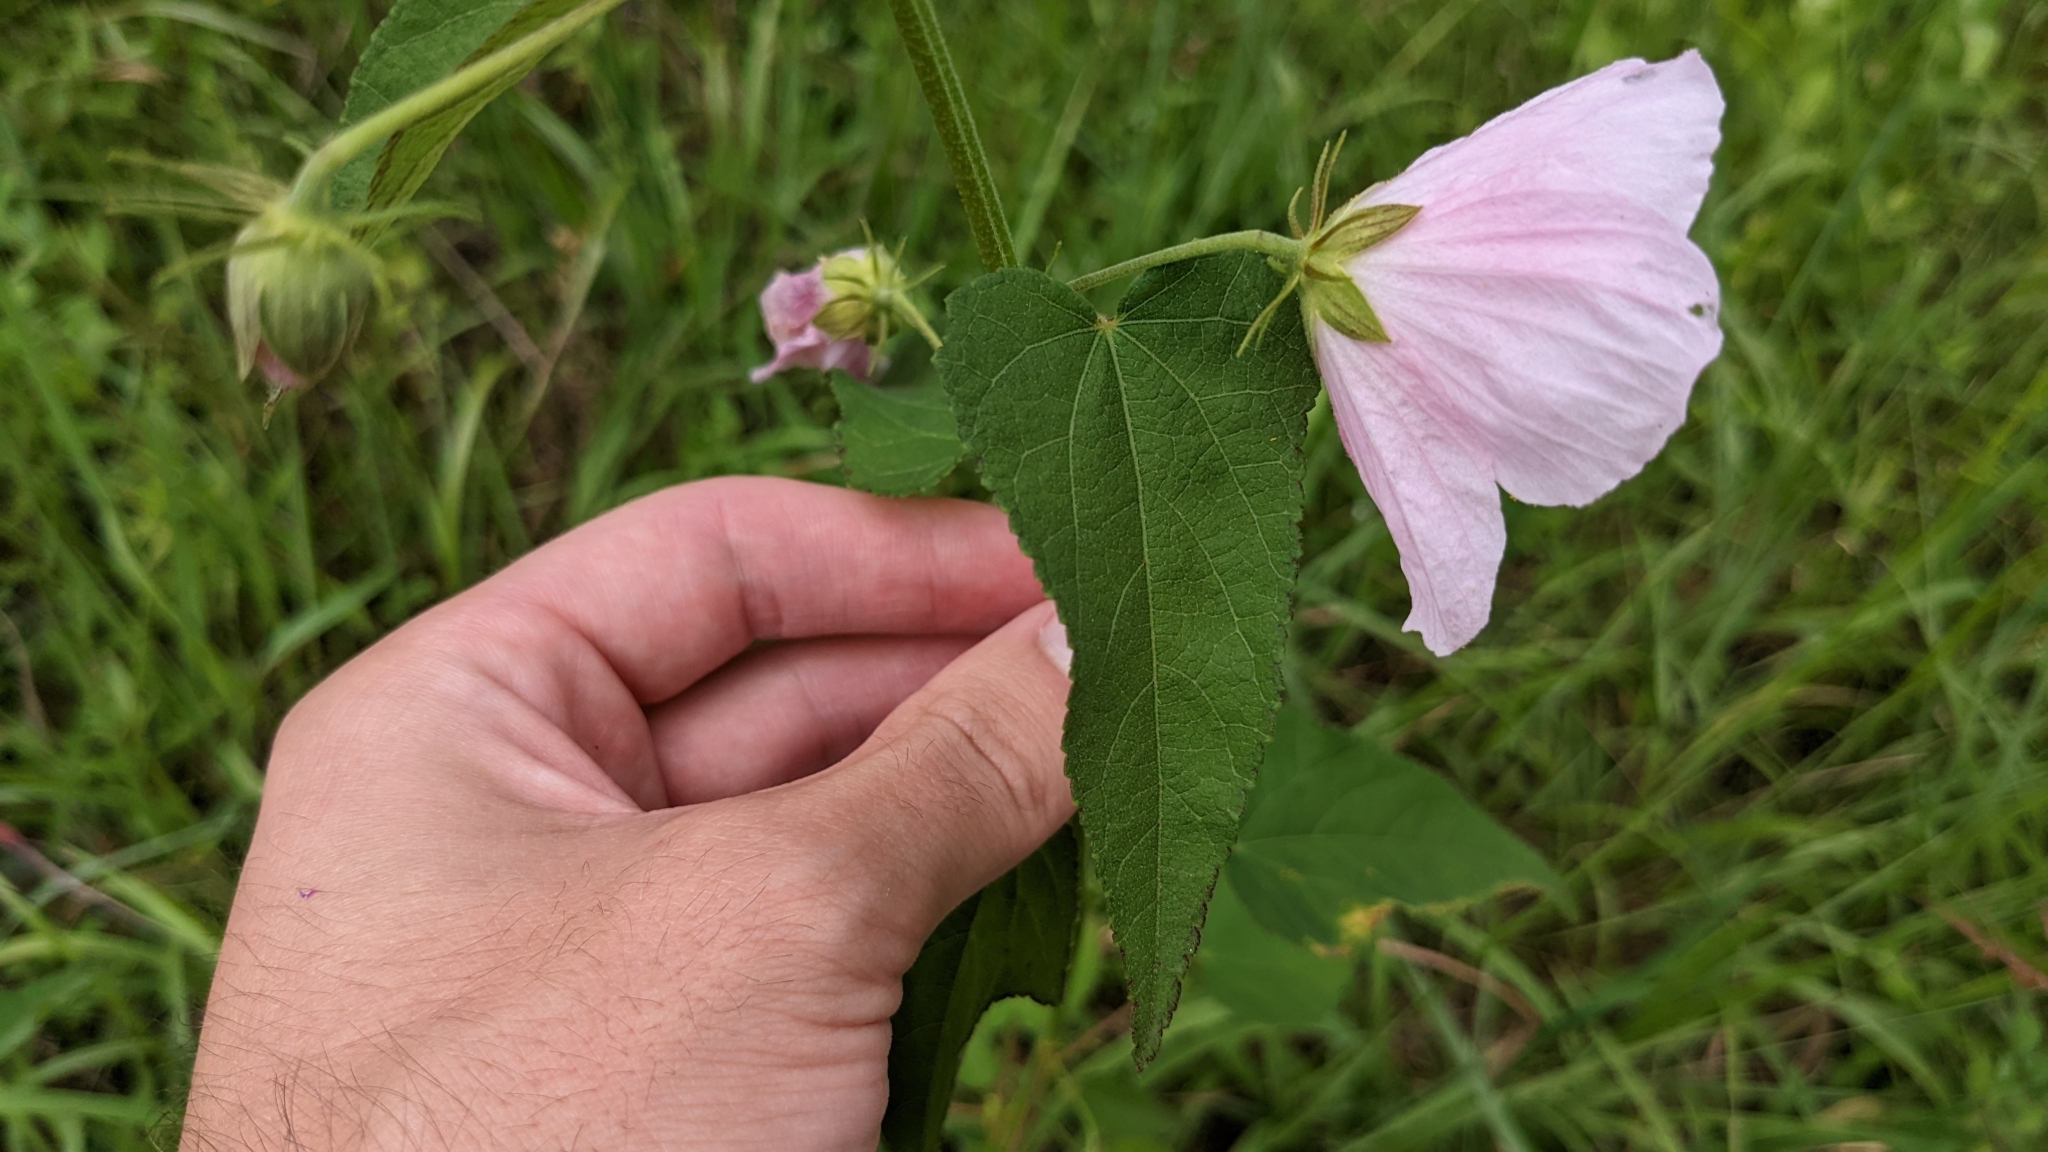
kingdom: Plantae
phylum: Tracheophyta
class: Magnoliopsida
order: Malvales
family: Malvaceae
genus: Kosteletzkya
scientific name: Kosteletzkya pentacarpos
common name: Virginia saltmarsh mallow
